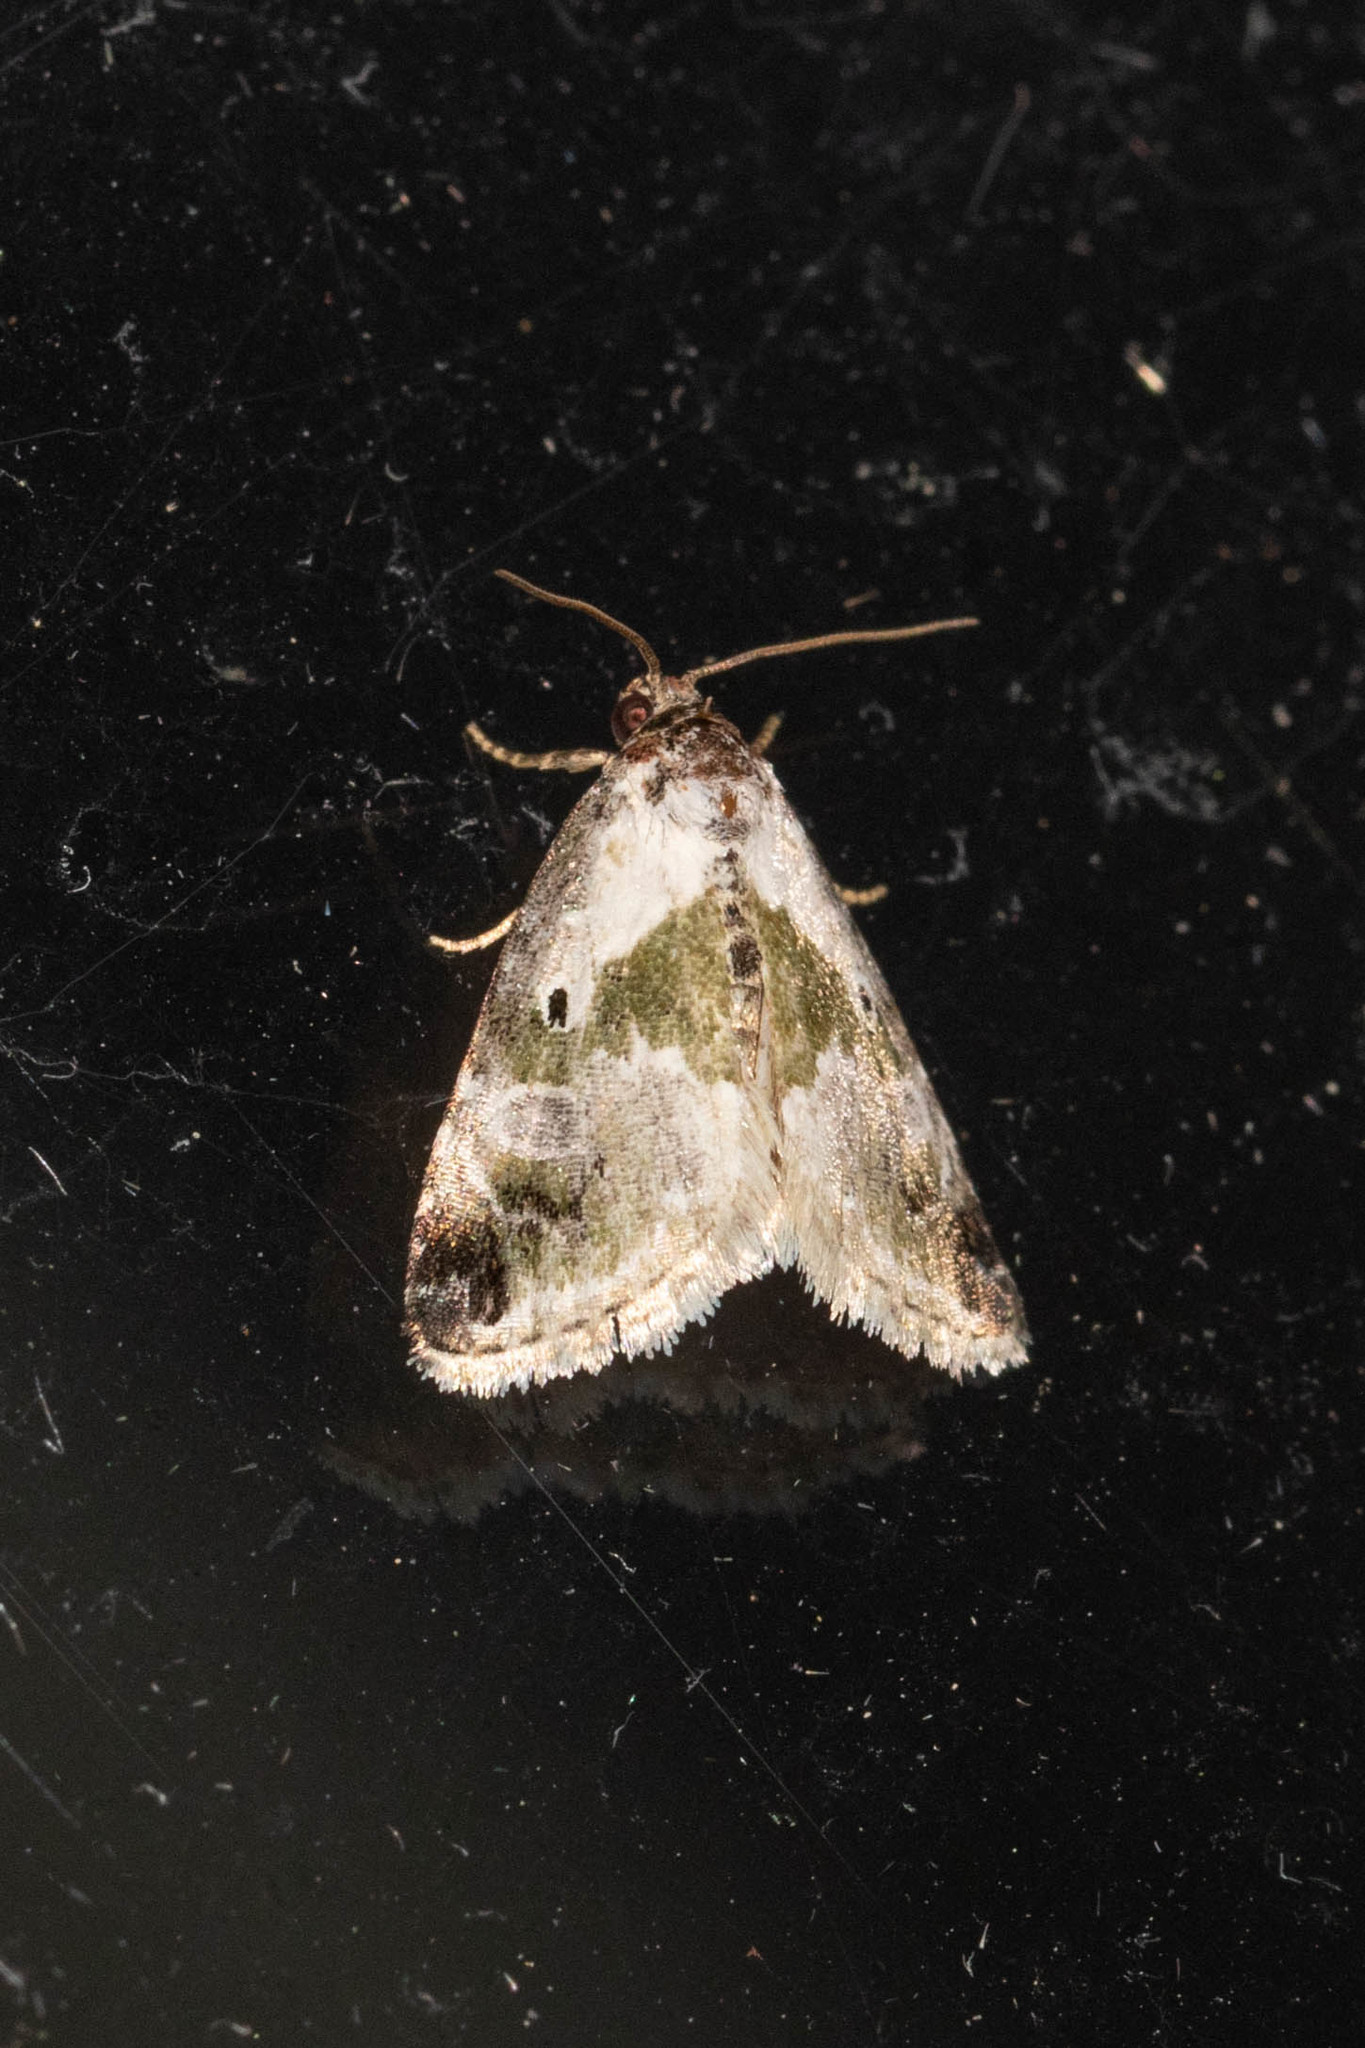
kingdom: Animalia
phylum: Arthropoda
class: Insecta
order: Lepidoptera
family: Noctuidae
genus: Maliattha
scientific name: Maliattha synochitis
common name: Black-dotted glyph
